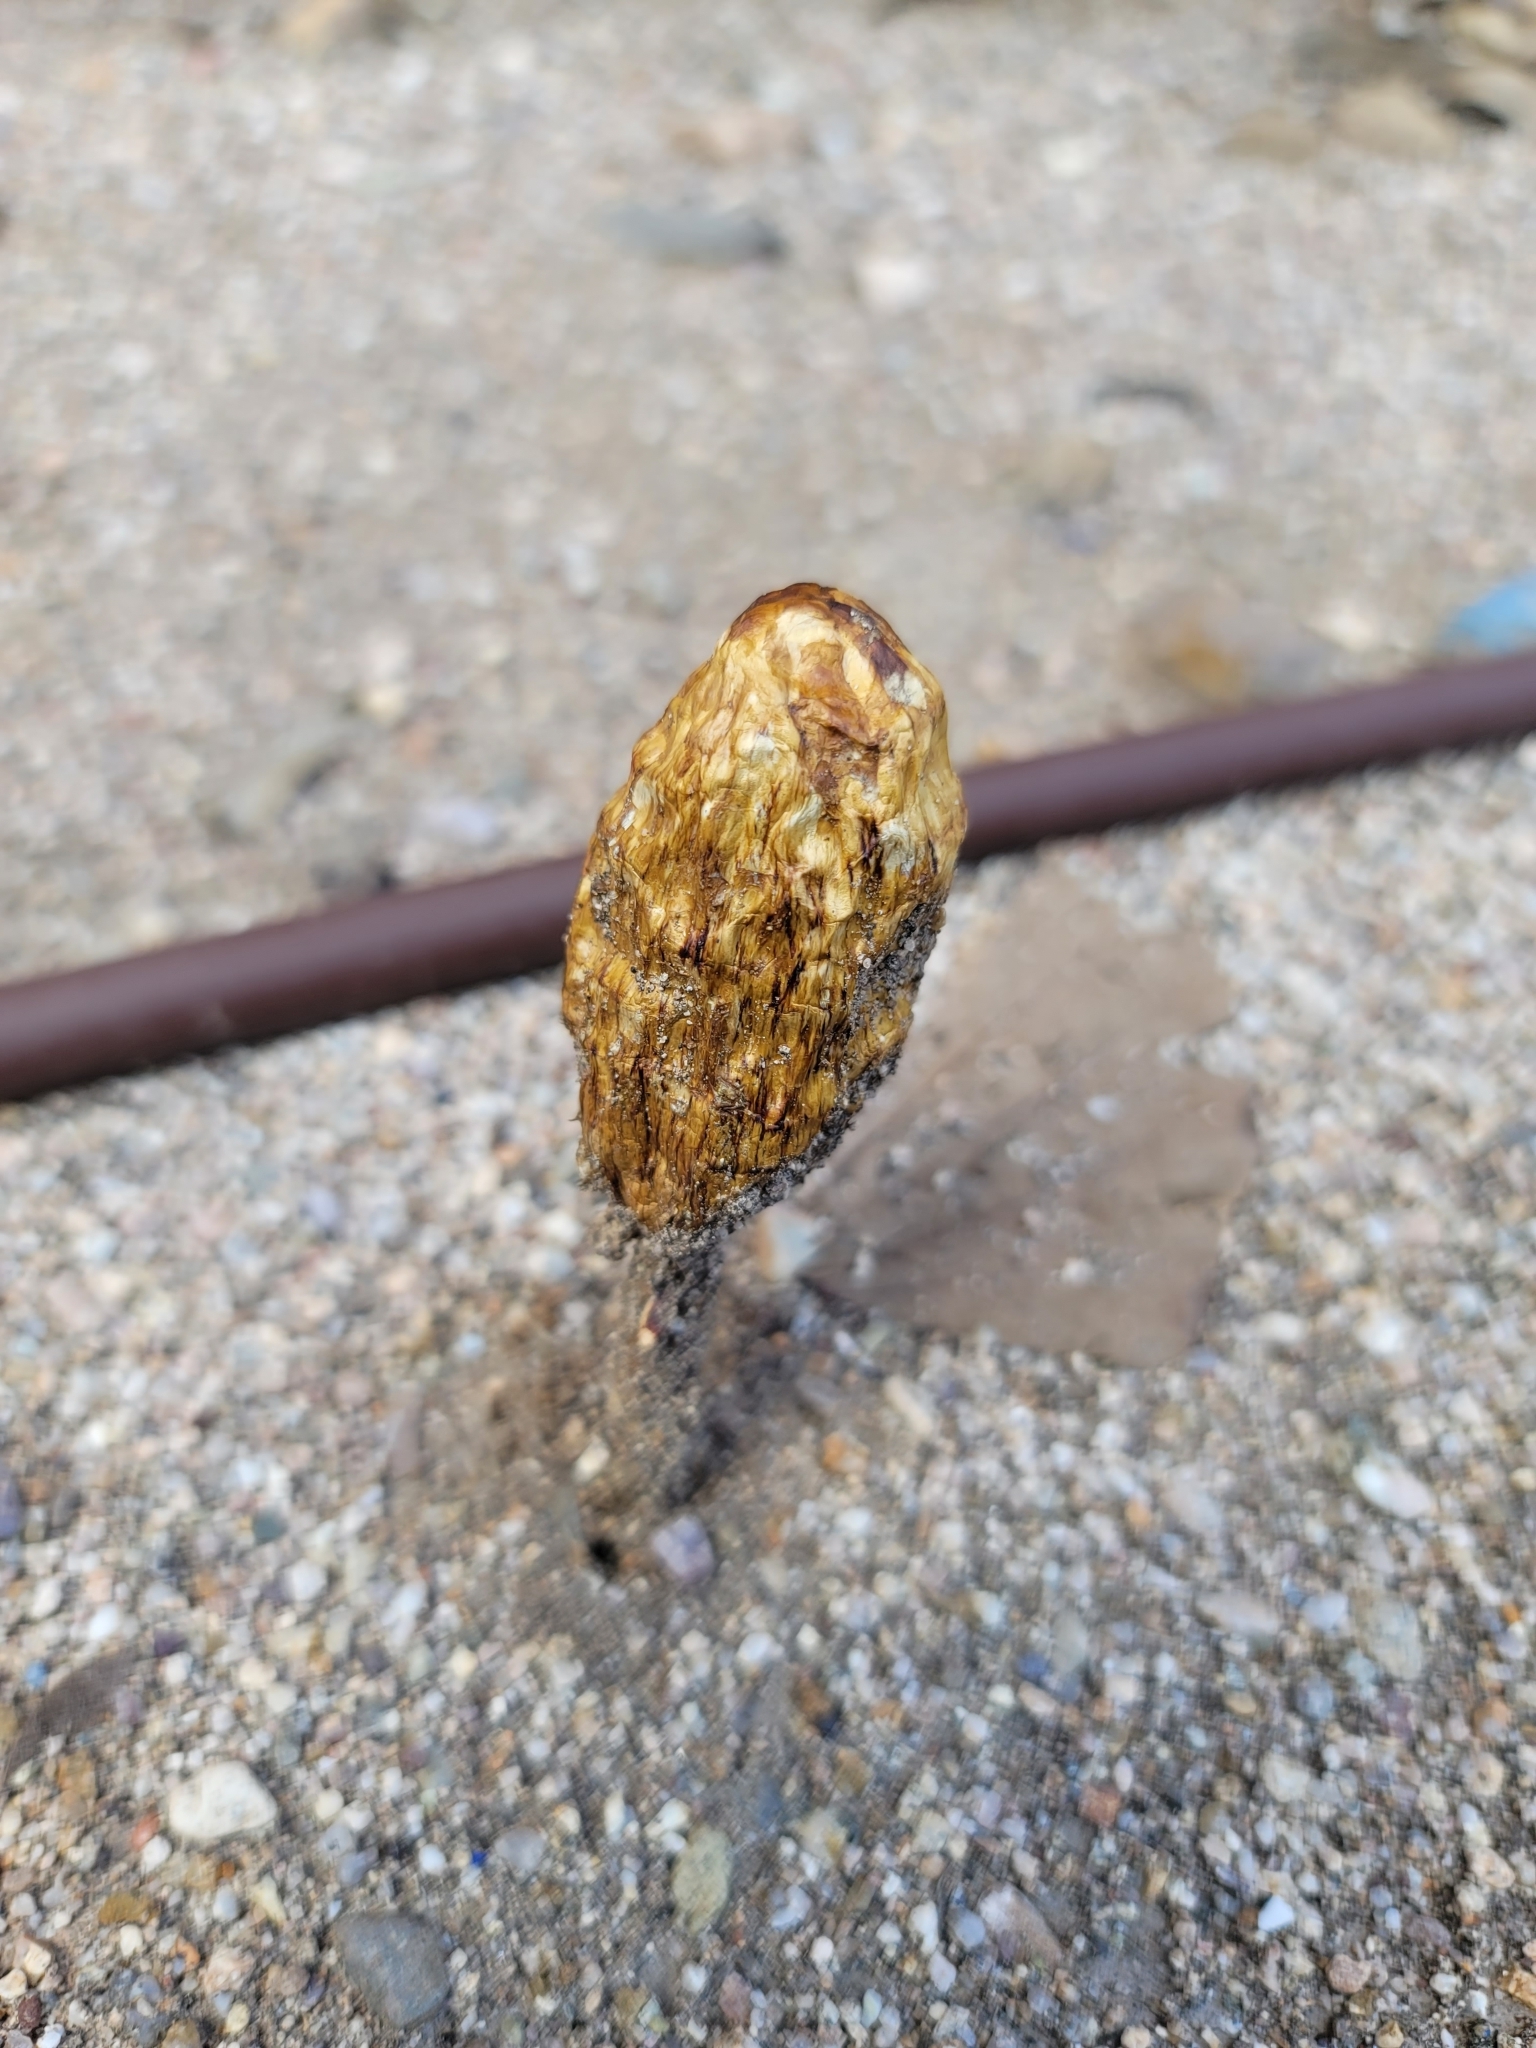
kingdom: Fungi
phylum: Basidiomycota
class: Agaricomycetes
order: Agaricales
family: Agaricaceae
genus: Podaxis
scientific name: Podaxis pistillaris
